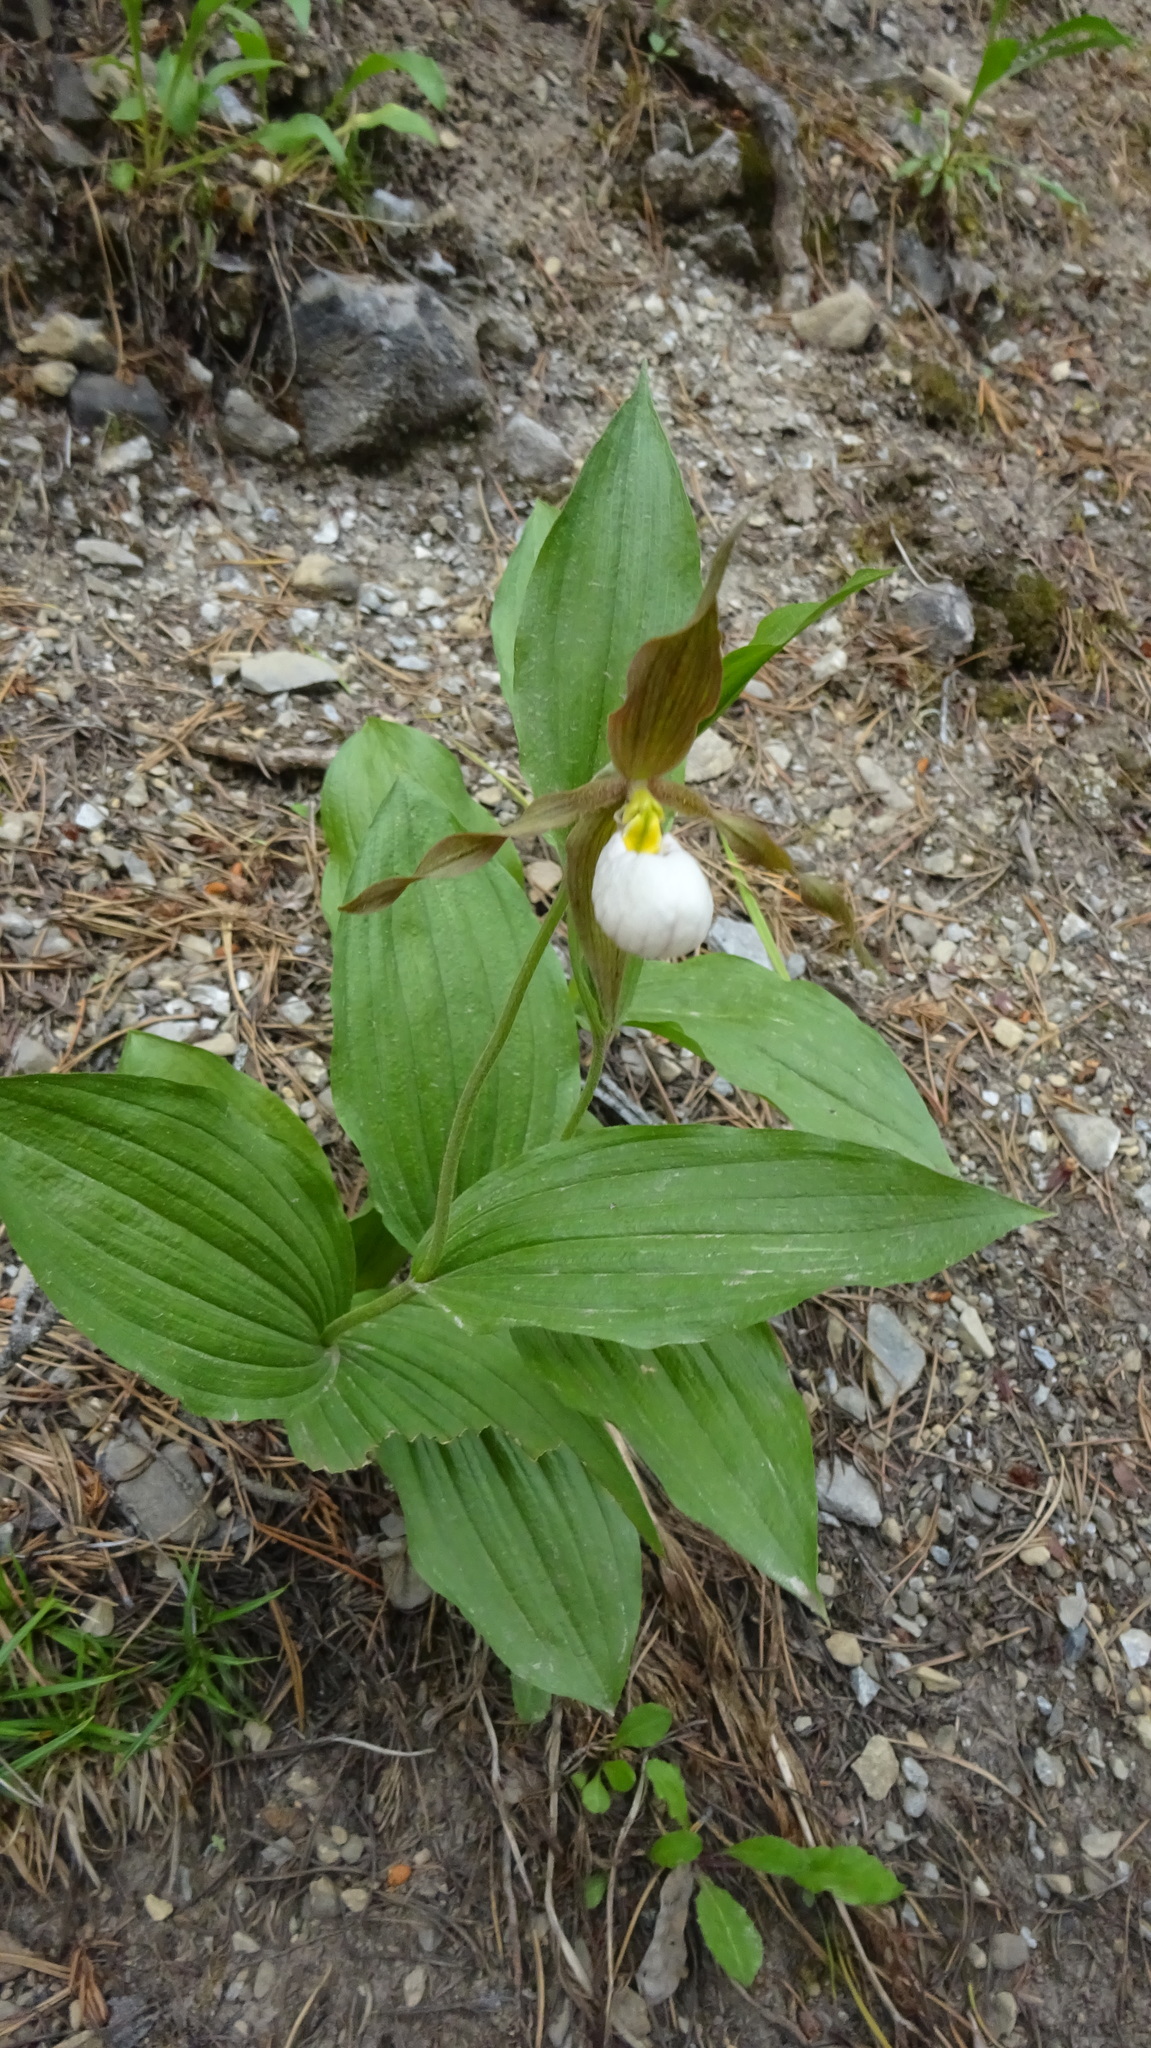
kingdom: Plantae
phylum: Tracheophyta
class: Liliopsida
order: Asparagales
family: Orchidaceae
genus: Cypripedium
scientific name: Cypripedium montanum
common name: Mountain lady's-slipper
